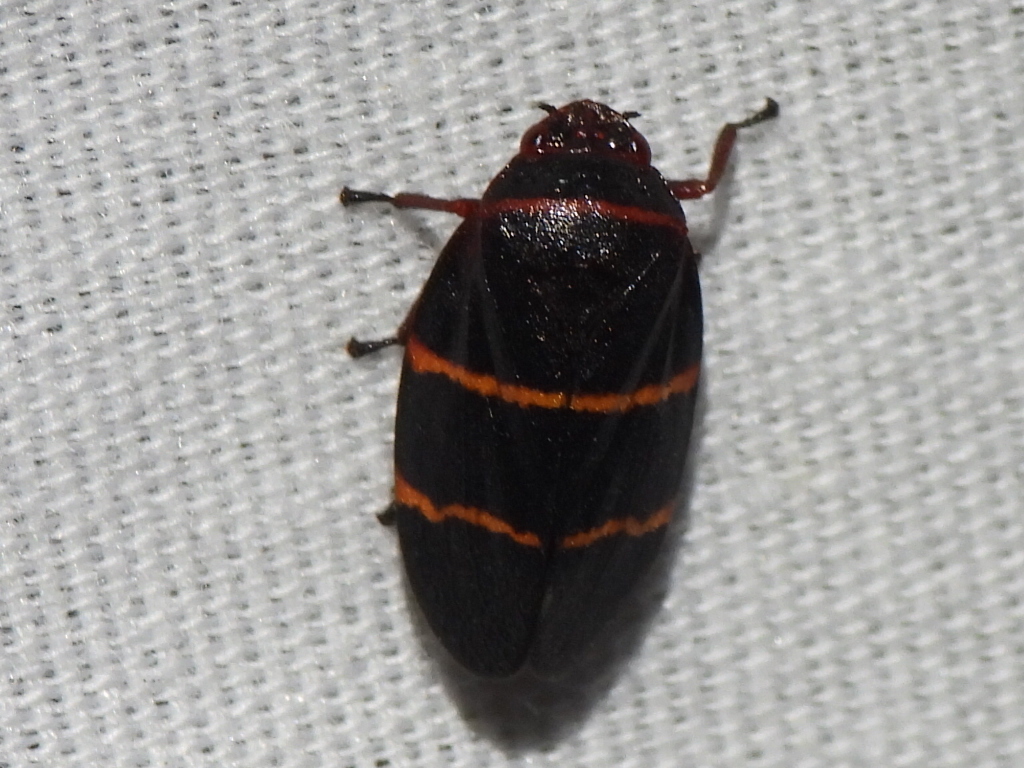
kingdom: Animalia
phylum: Arthropoda
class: Insecta
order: Hemiptera
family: Cercopidae
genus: Prosapia
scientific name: Prosapia bicincta
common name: Twolined spittlebug
